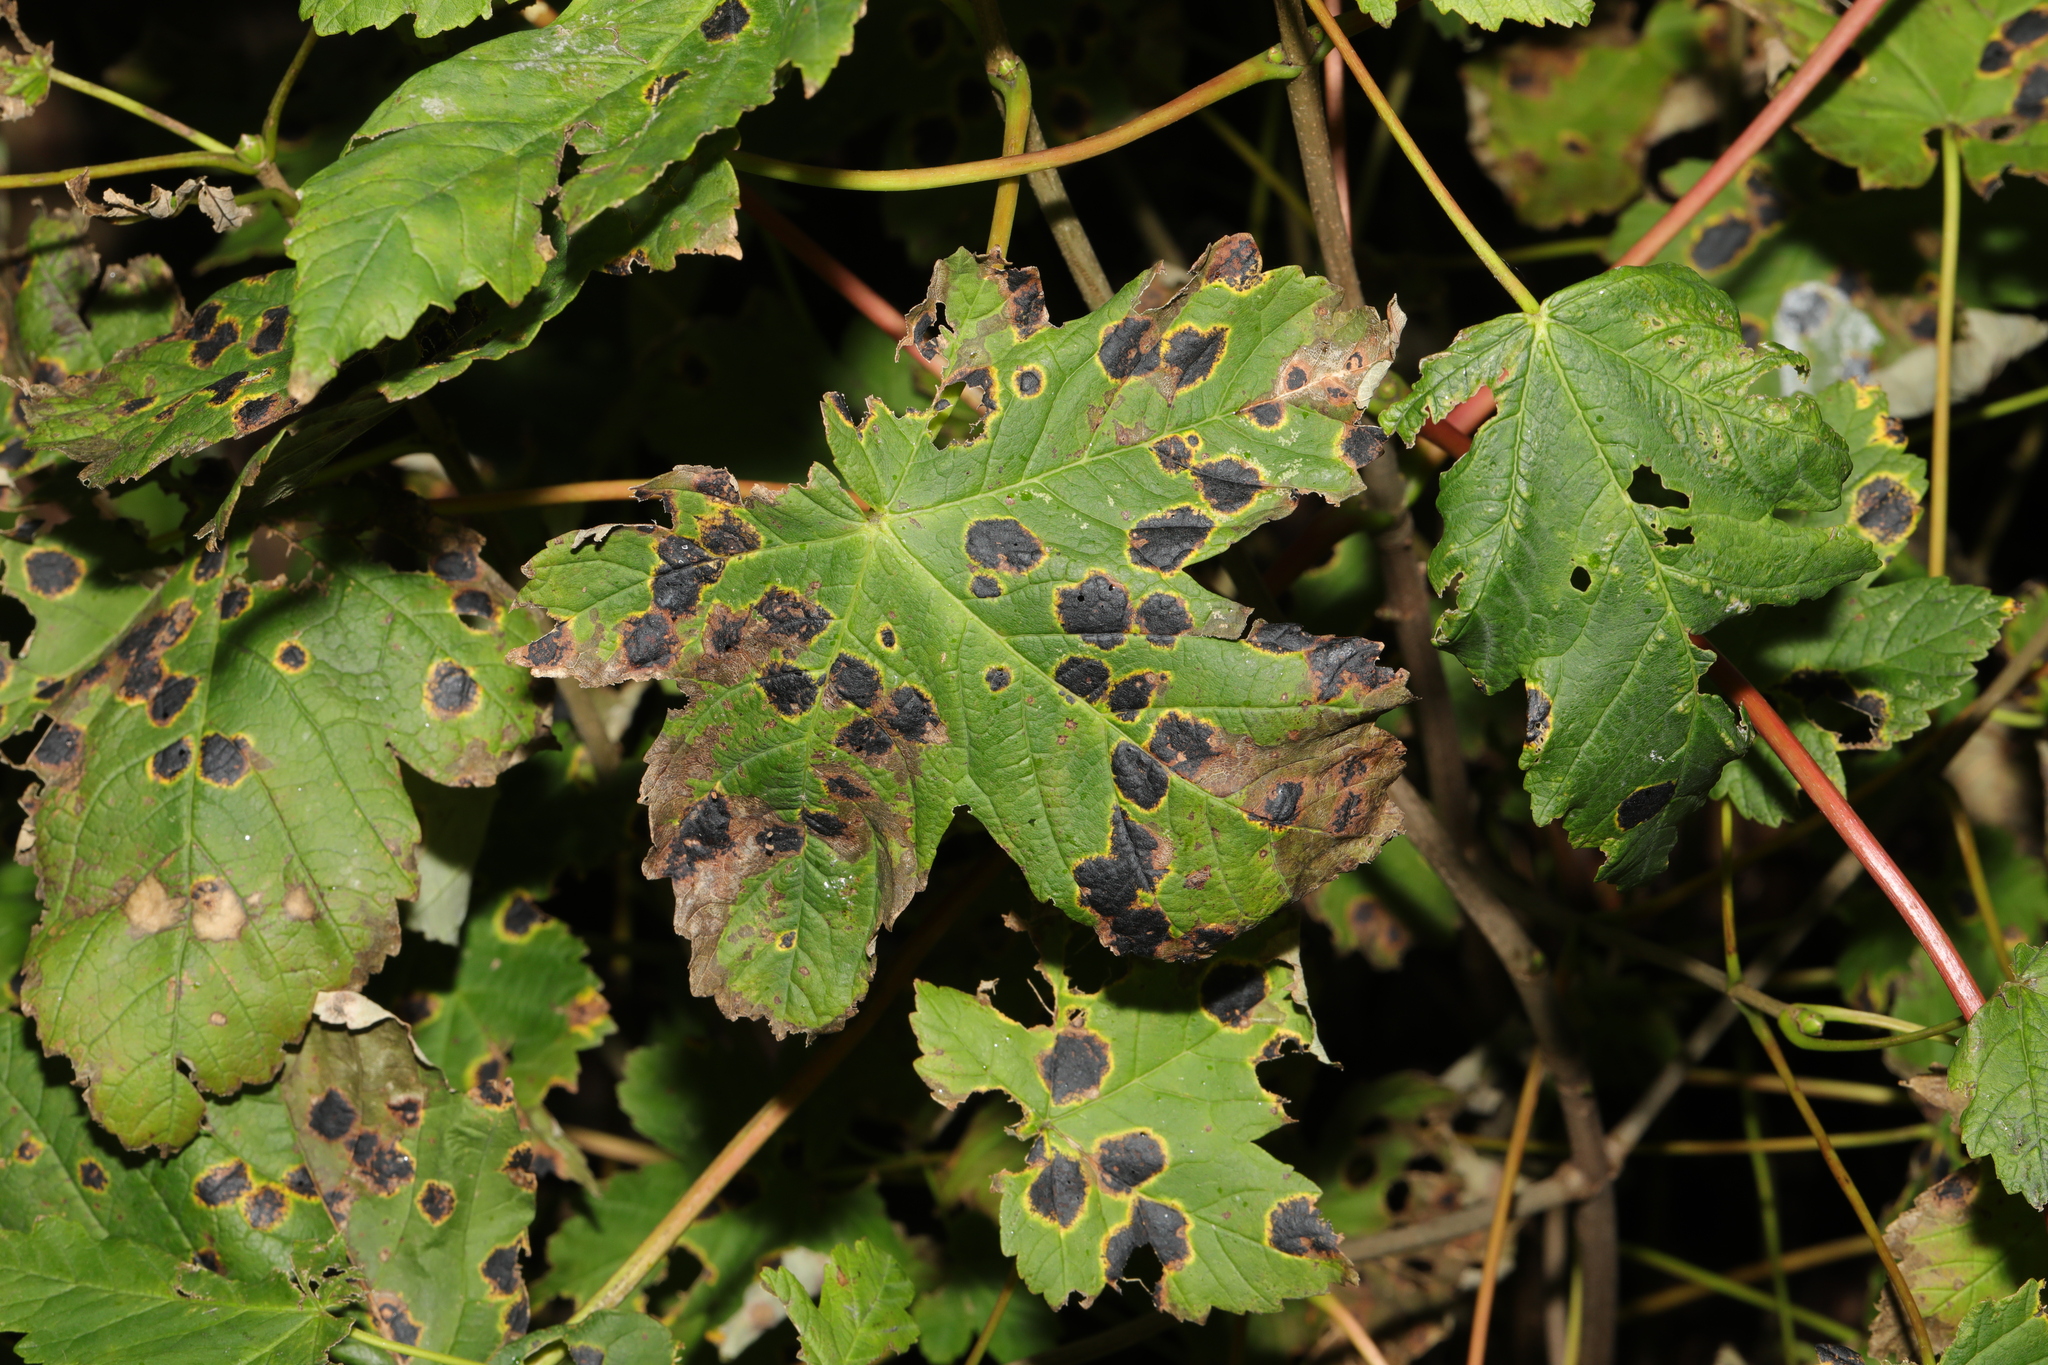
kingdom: Plantae
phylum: Tracheophyta
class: Magnoliopsida
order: Sapindales
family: Sapindaceae
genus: Acer
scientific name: Acer pseudoplatanus
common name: Sycamore
